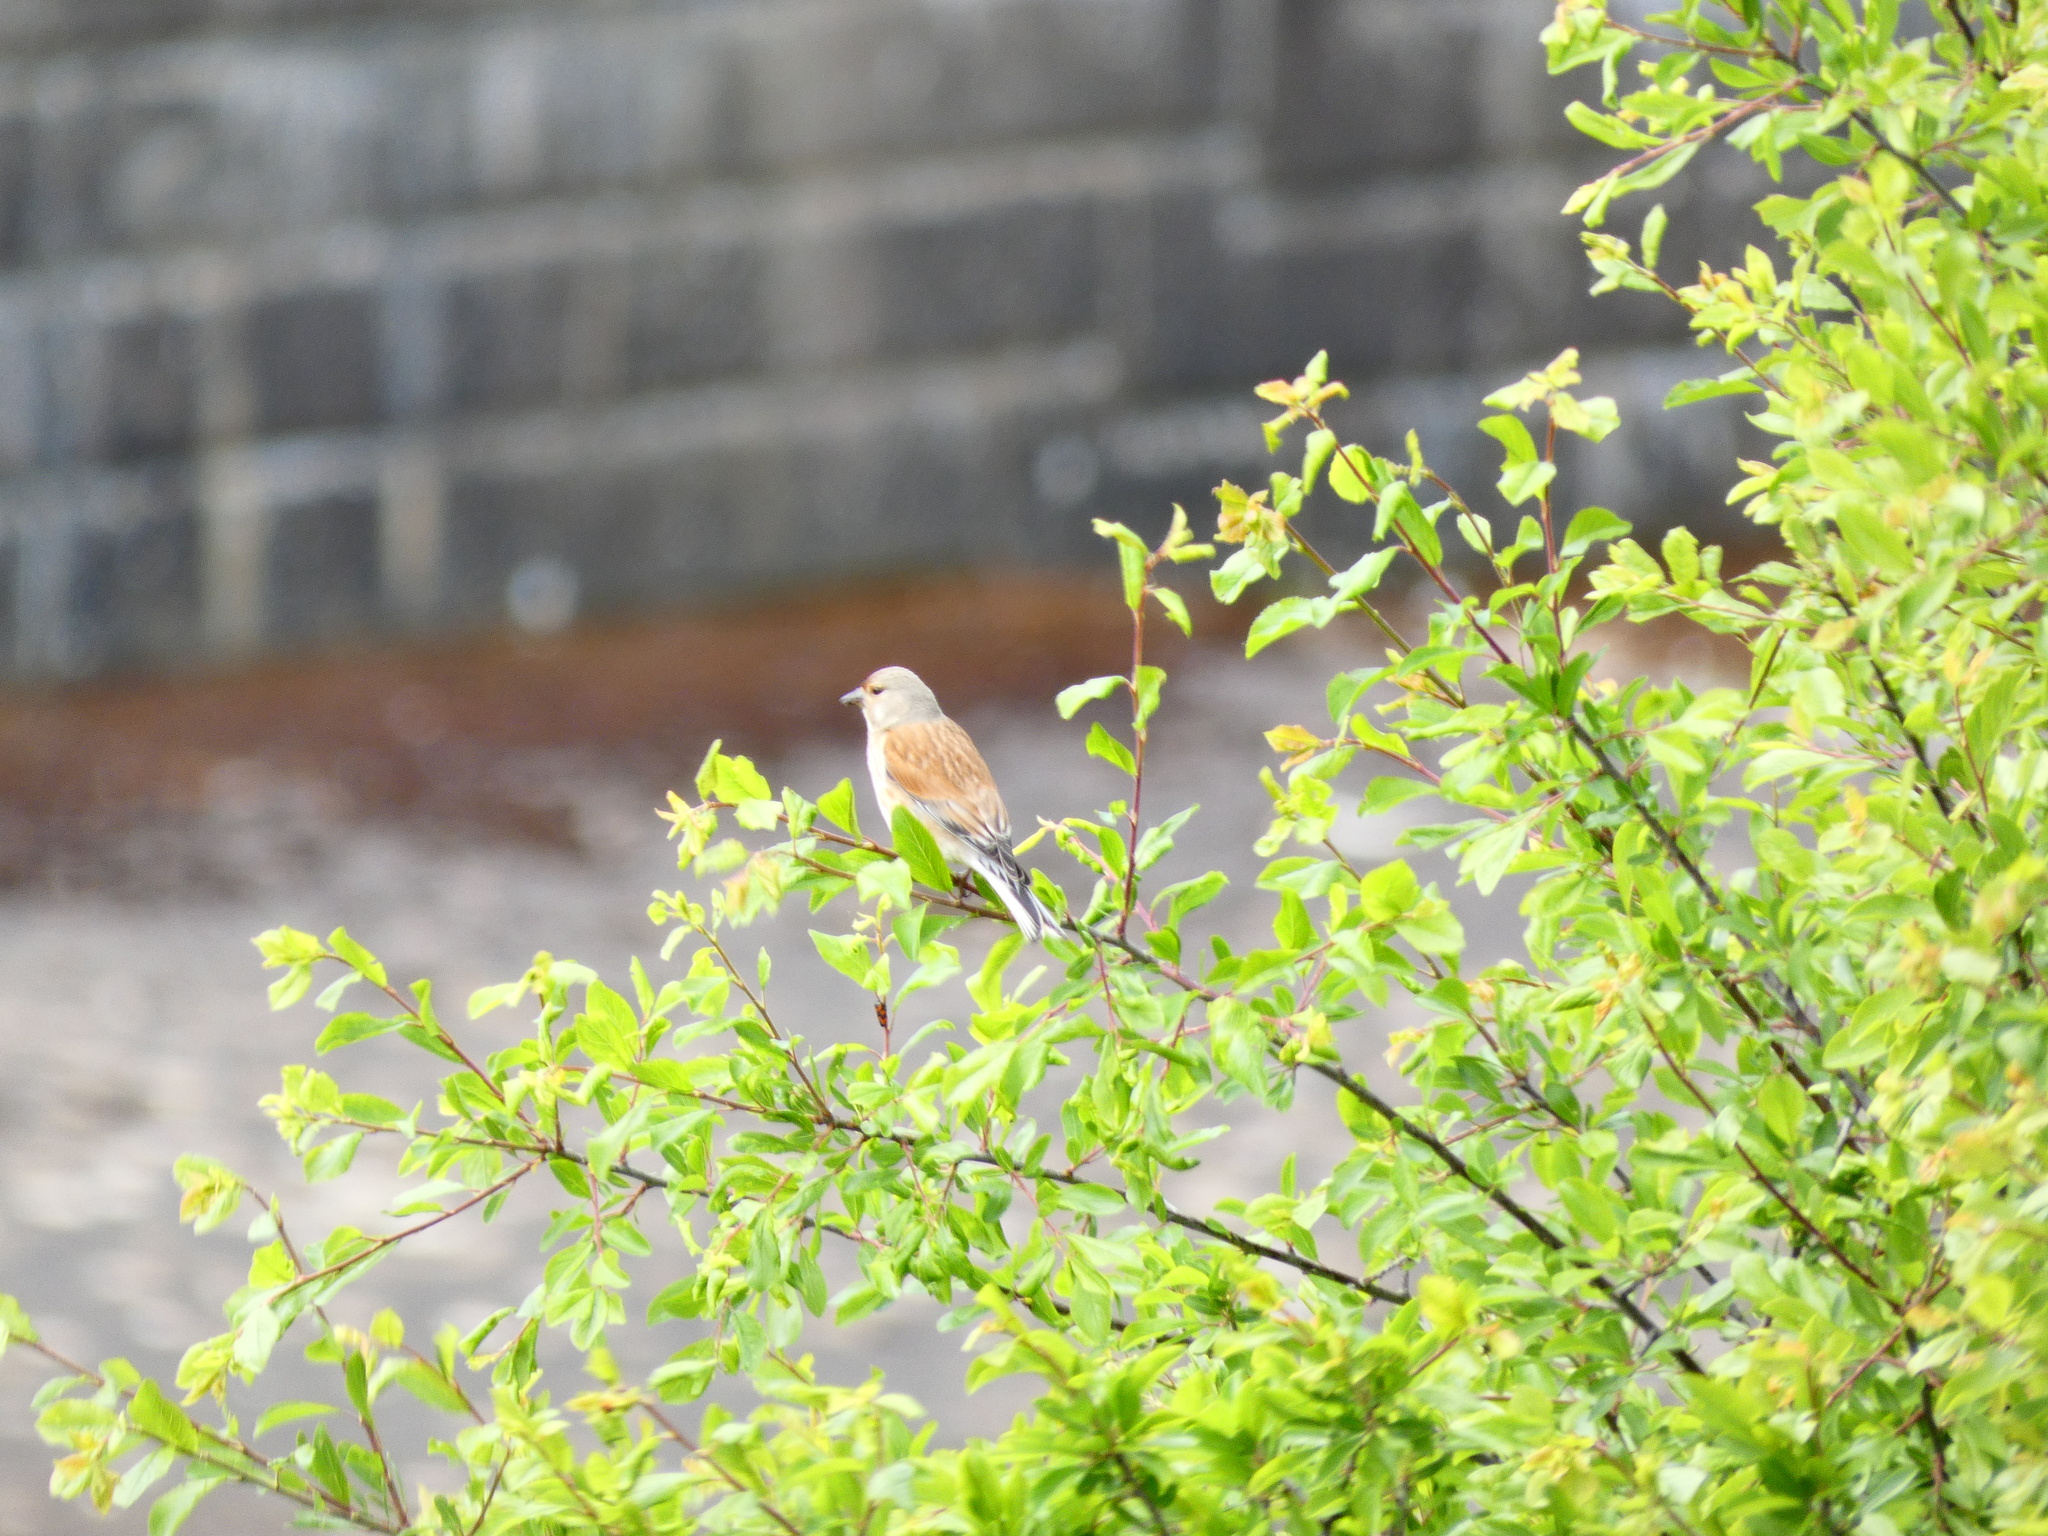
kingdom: Animalia
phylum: Chordata
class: Aves
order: Passeriformes
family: Fringillidae
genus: Linaria
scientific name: Linaria cannabina
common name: Common linnet
